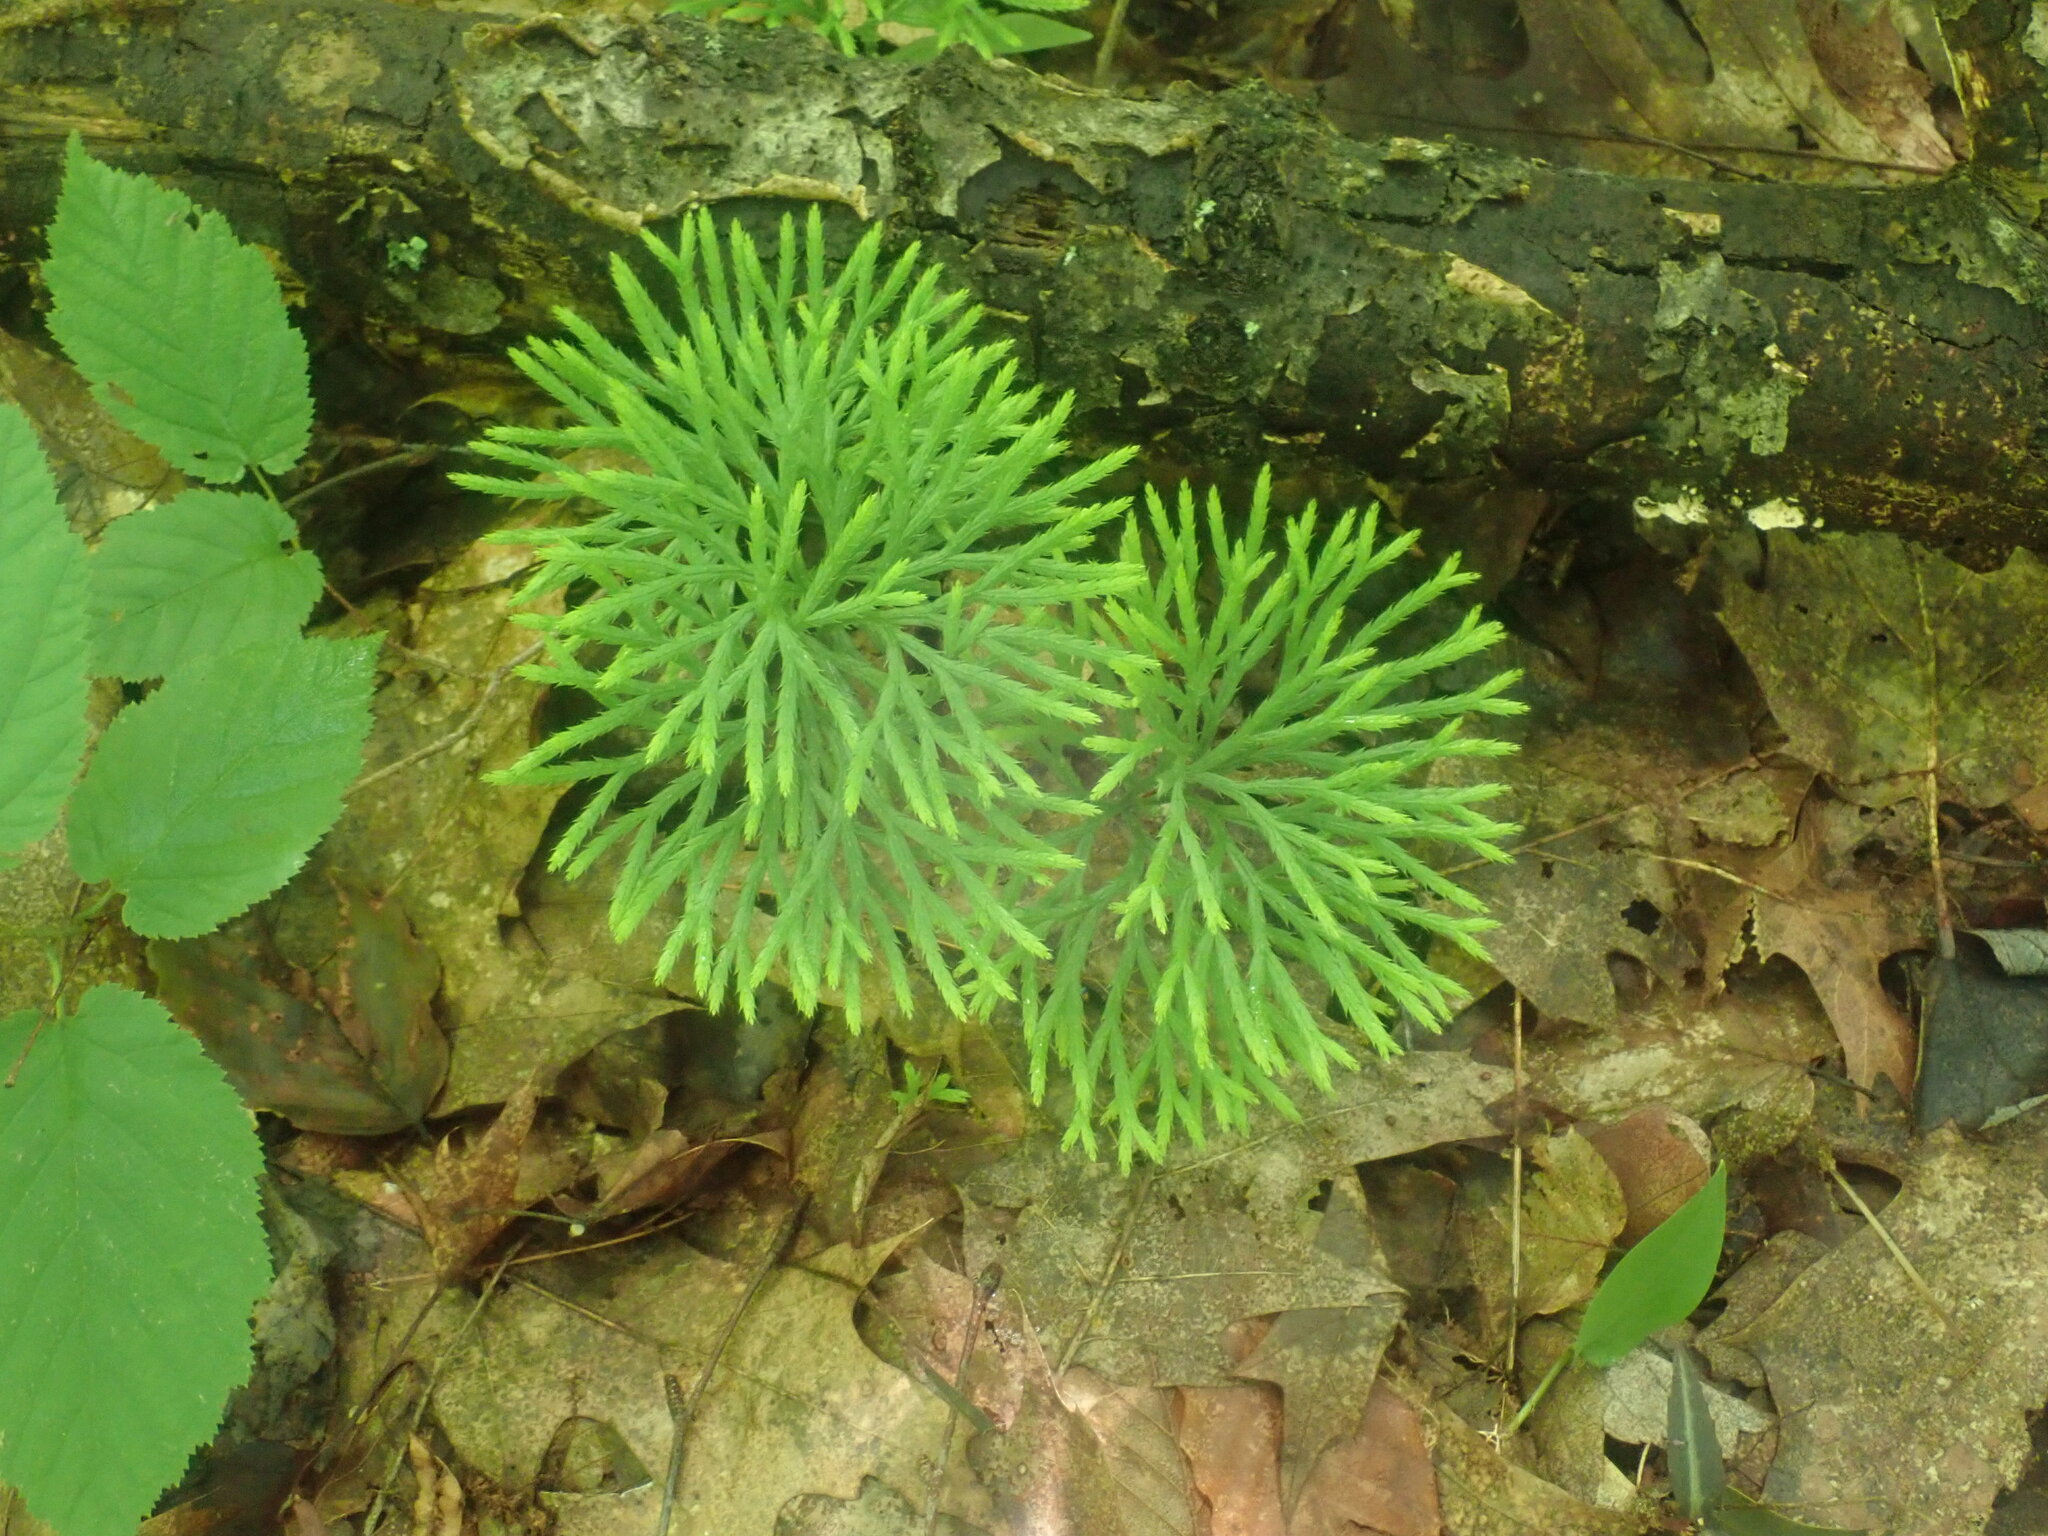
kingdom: Plantae
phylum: Tracheophyta
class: Lycopodiopsida
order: Lycopodiales
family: Lycopodiaceae
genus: Diphasiastrum
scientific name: Diphasiastrum digitatum
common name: Southern running-pine
